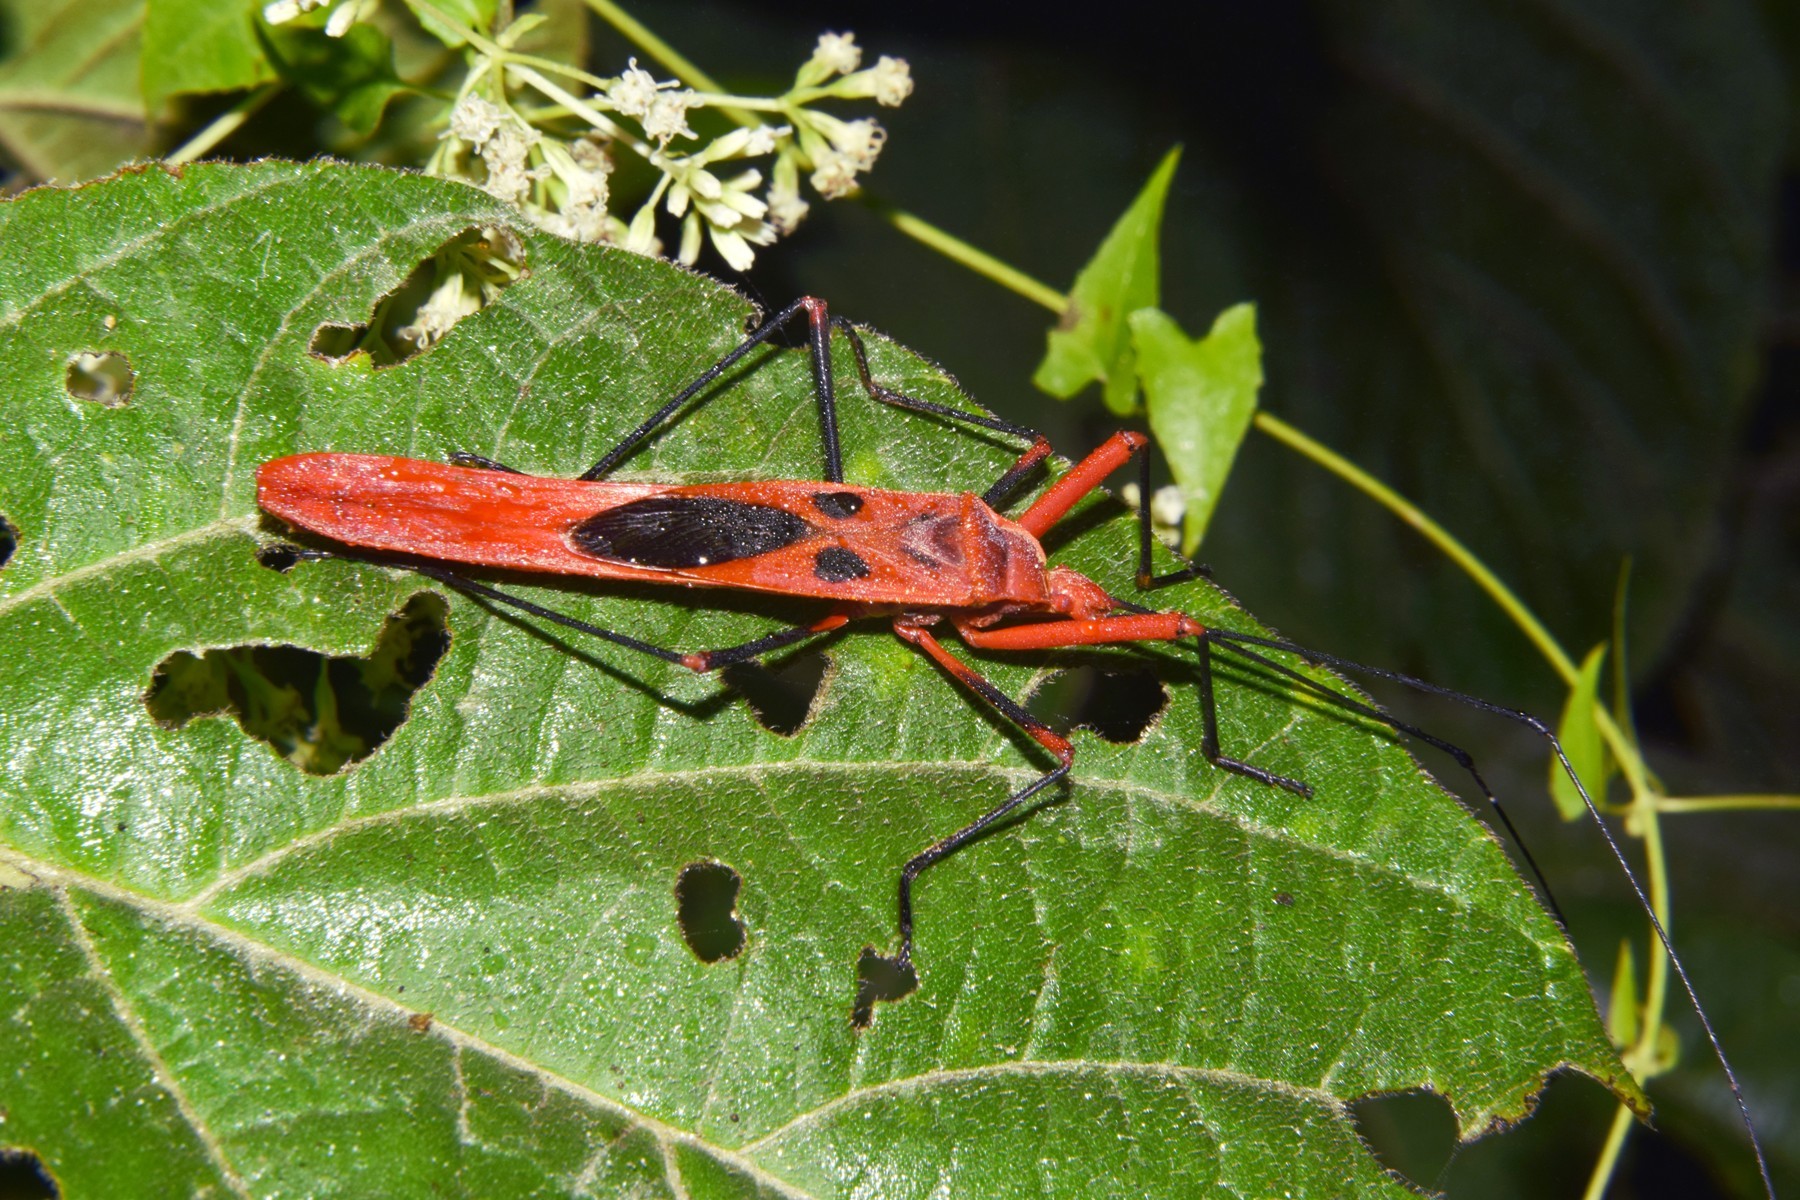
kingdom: Animalia
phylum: Arthropoda
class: Insecta
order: Hemiptera
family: Largidae
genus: Macrocheraia
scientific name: Macrocheraia grandis
